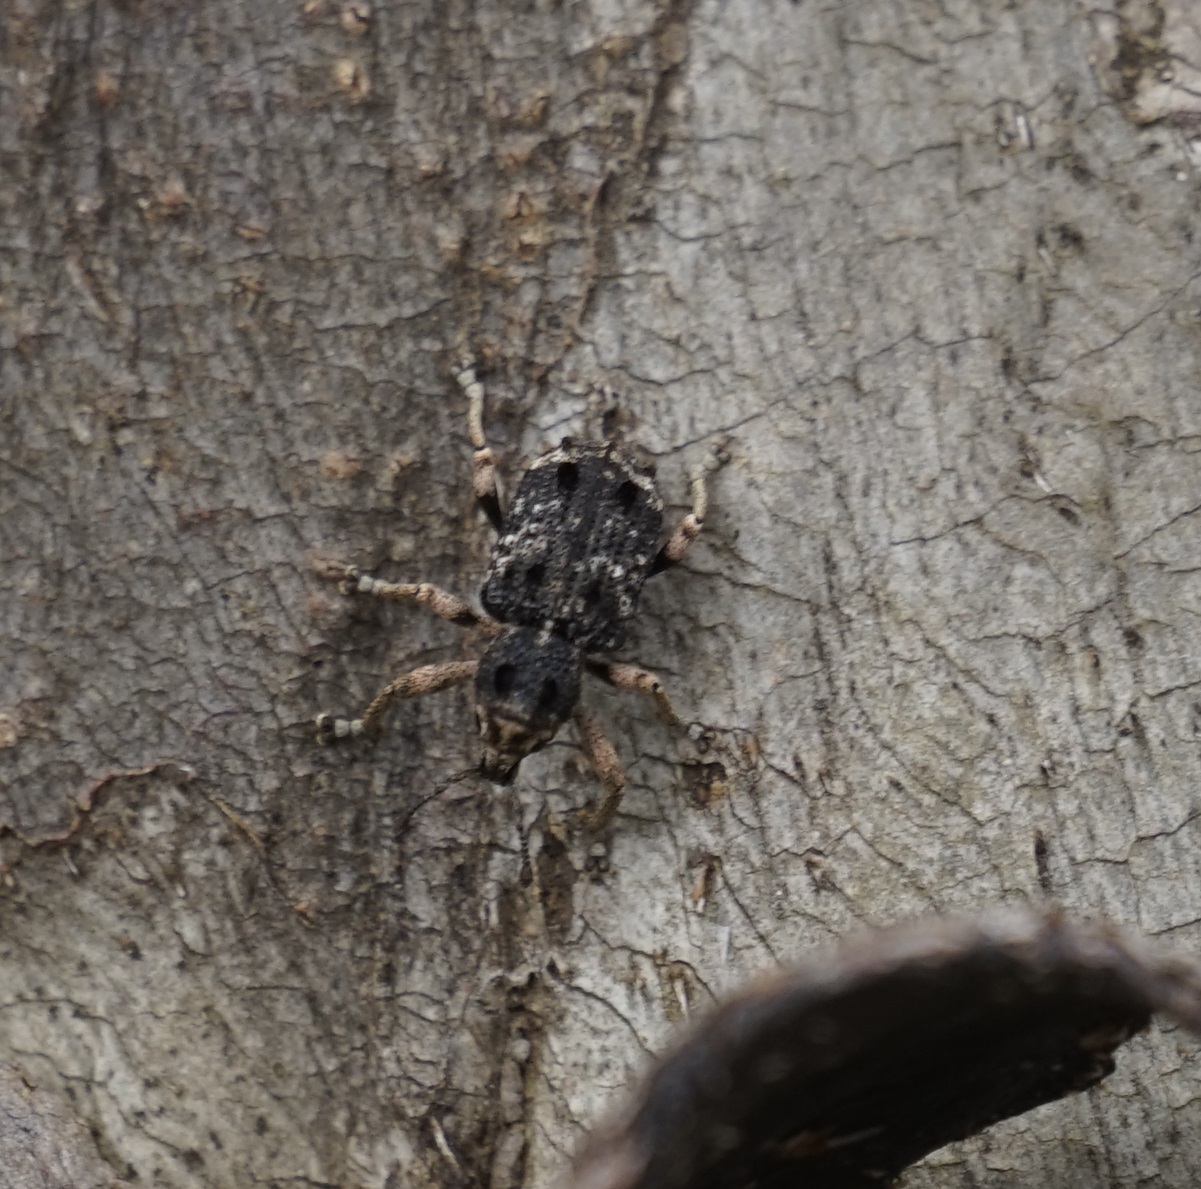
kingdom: Animalia
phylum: Arthropoda
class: Insecta
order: Coleoptera
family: Curculionidae
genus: Aades
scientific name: Aades cultratus
